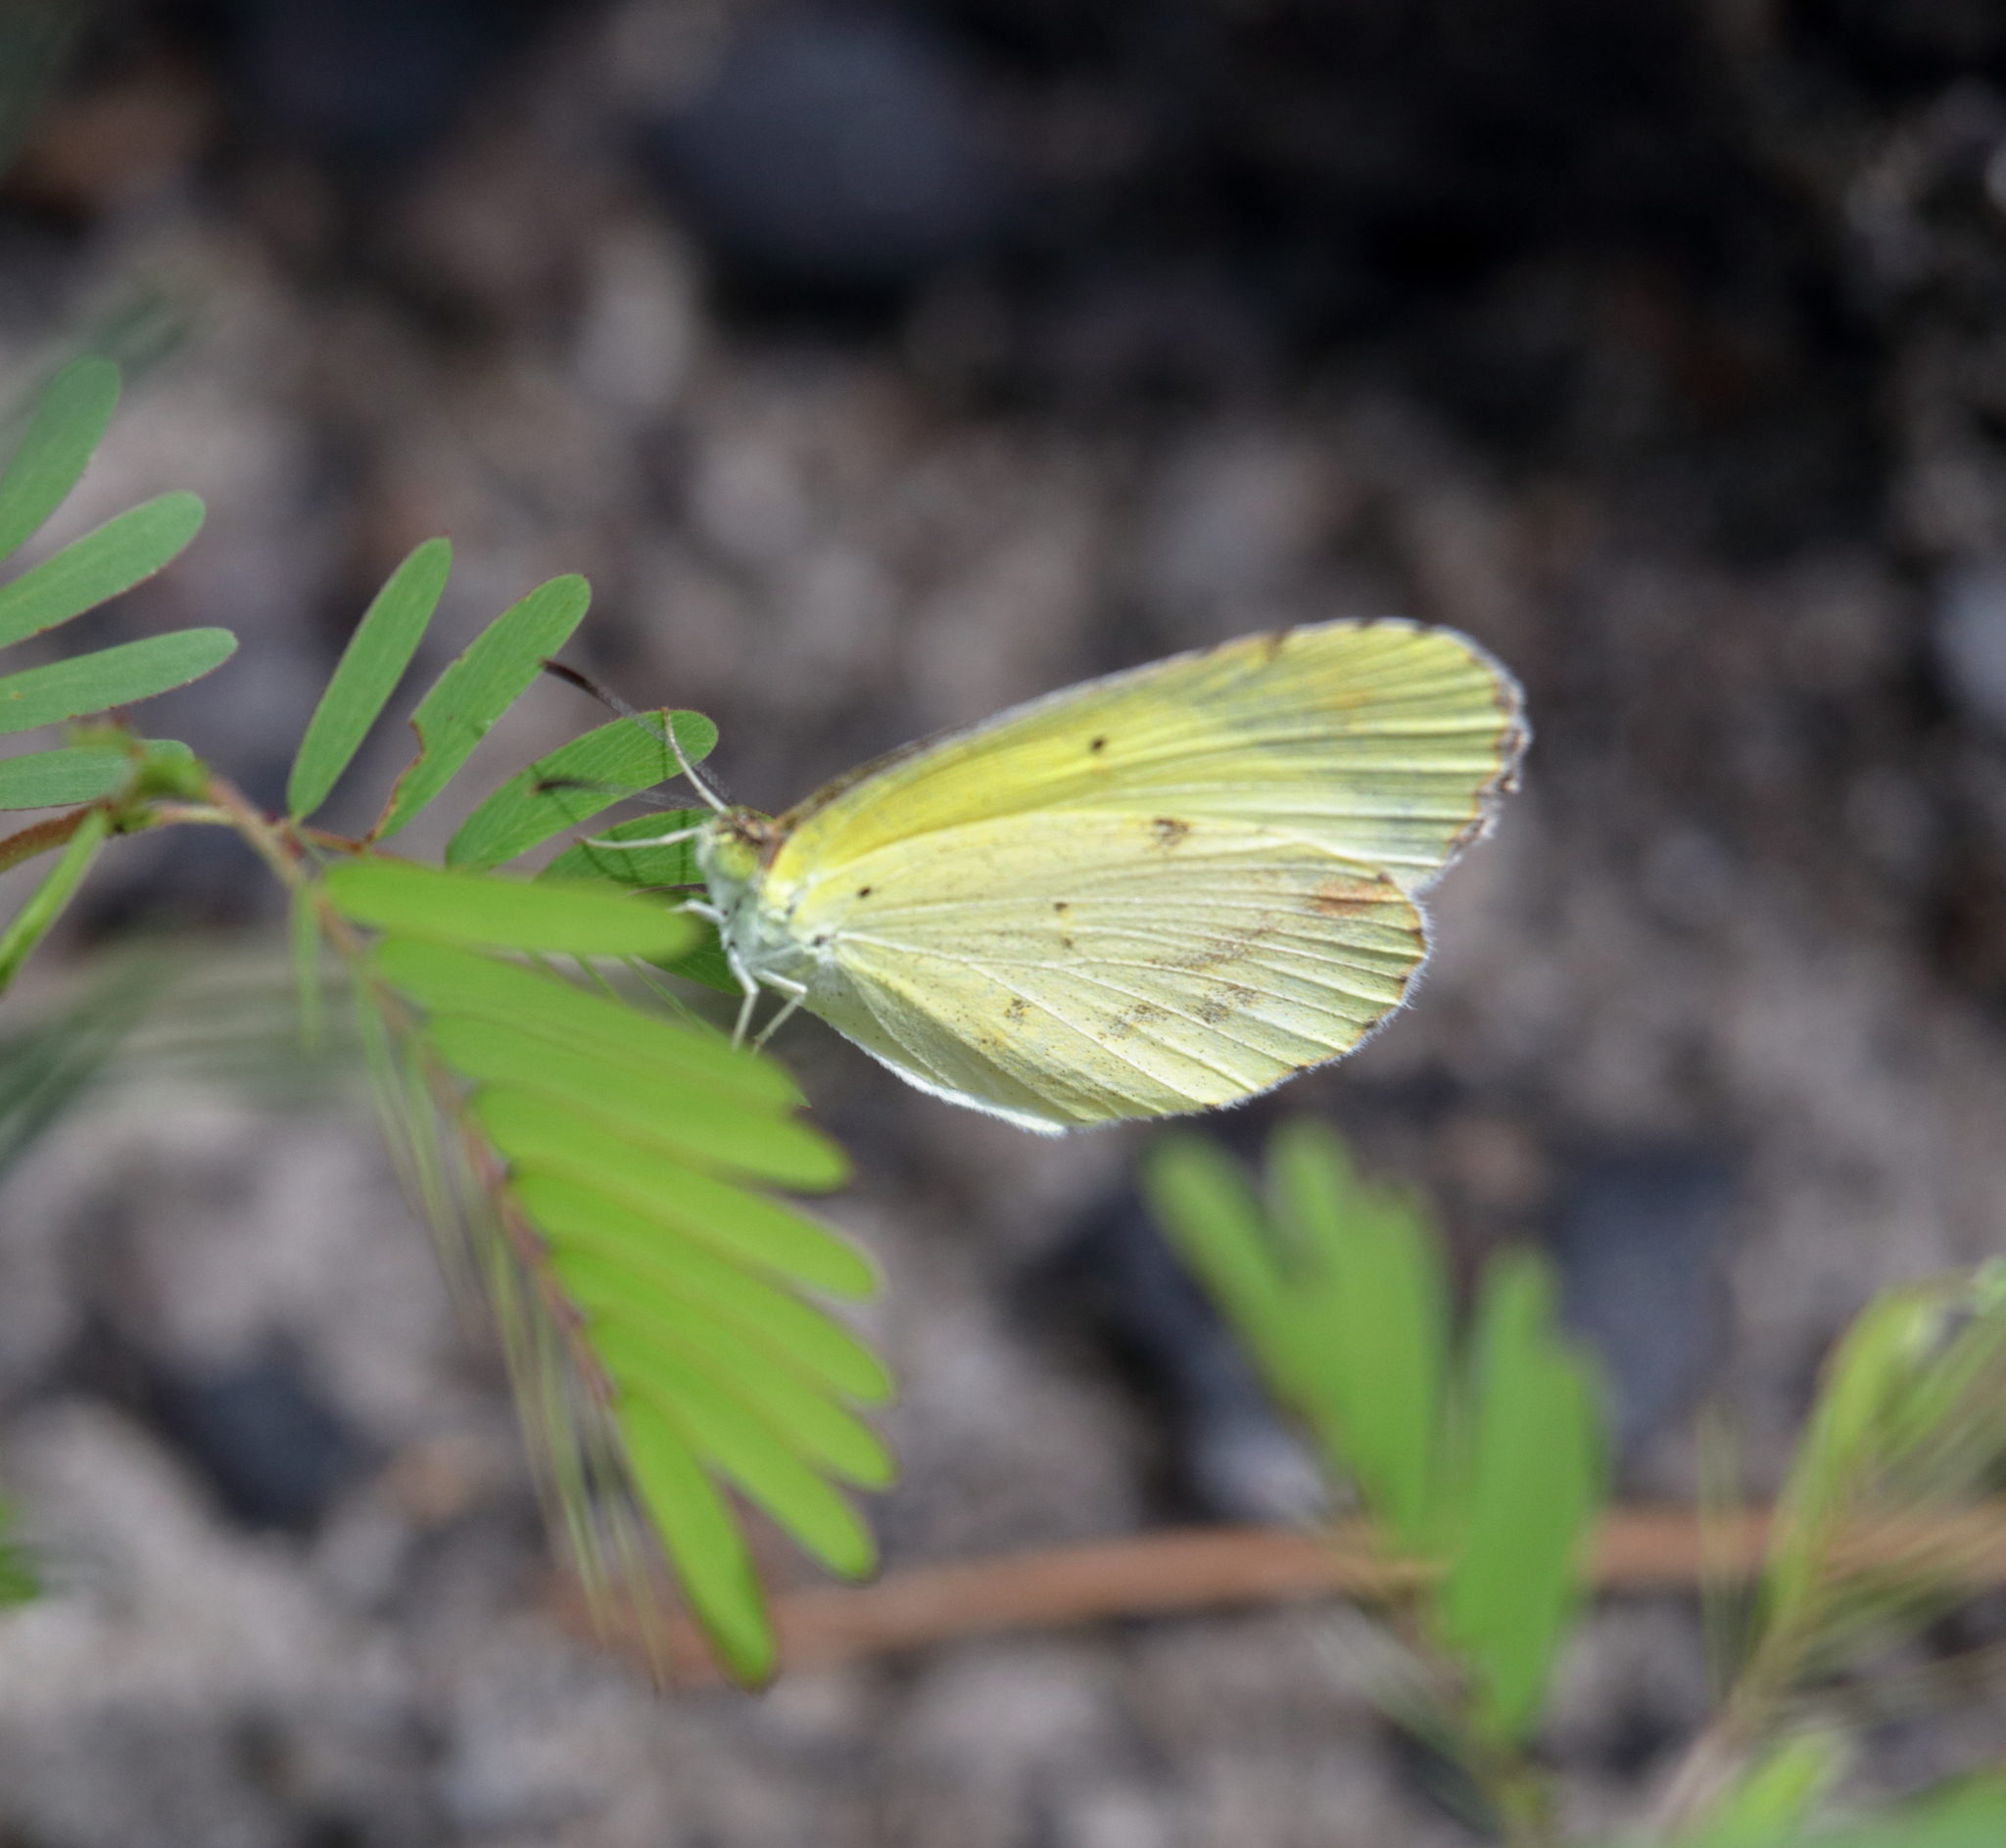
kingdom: Animalia
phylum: Arthropoda
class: Insecta
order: Lepidoptera
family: Pieridae
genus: Pyrisitia
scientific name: Pyrisitia lisa
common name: Little yellow
